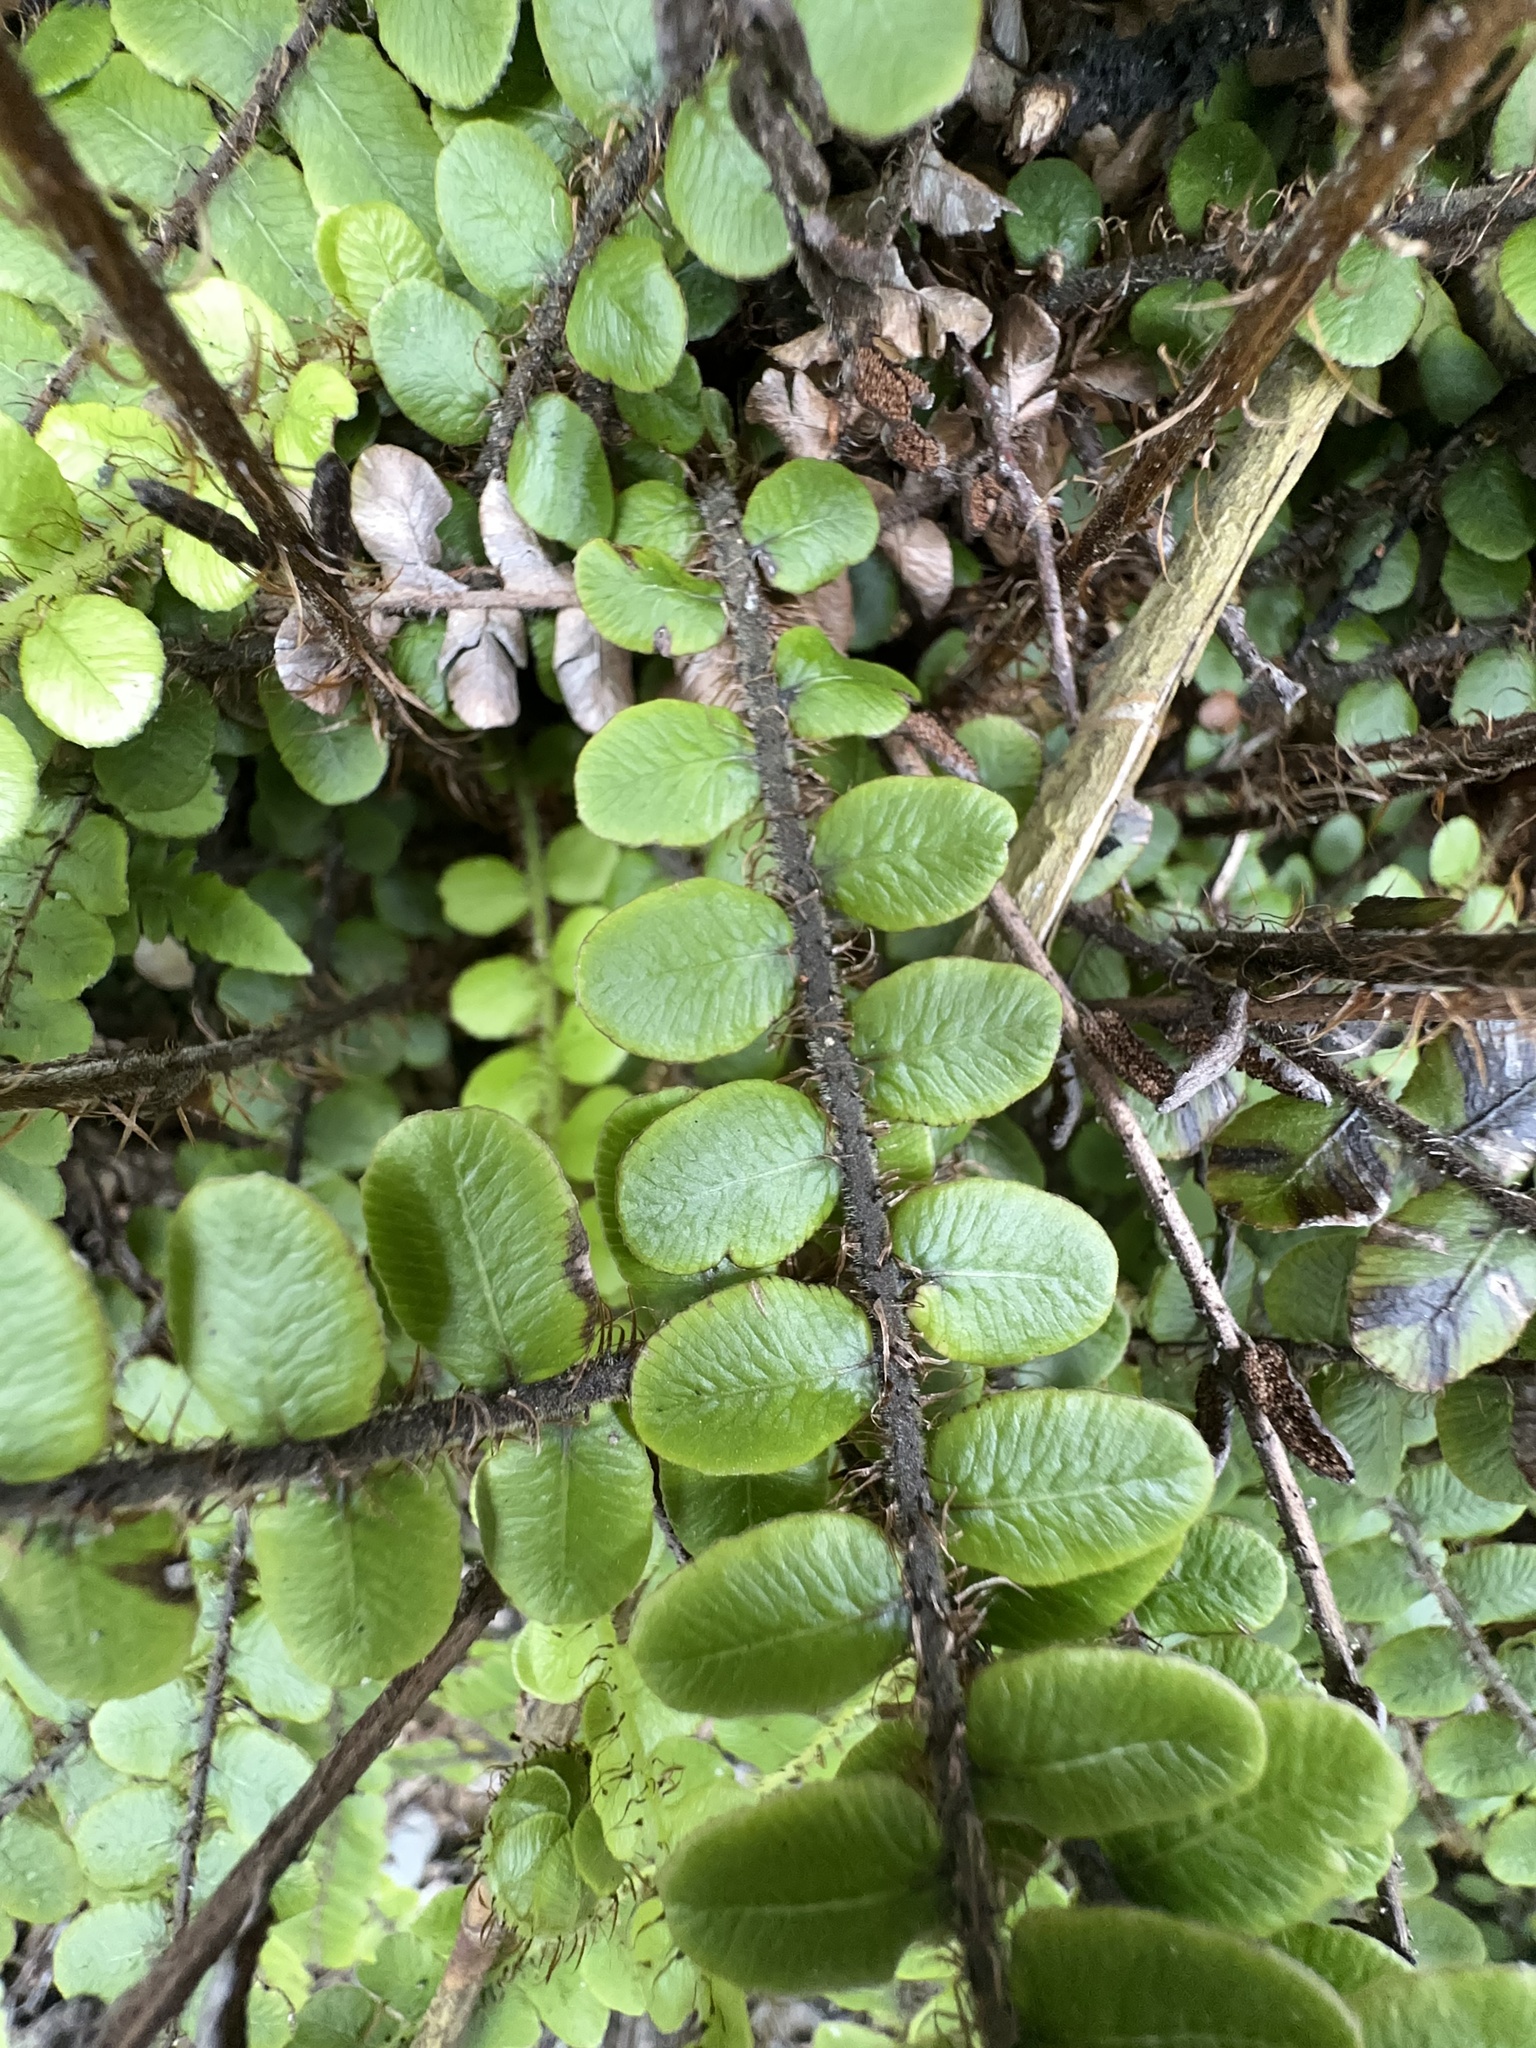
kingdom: Plantae
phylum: Tracheophyta
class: Polypodiopsida
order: Polypodiales
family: Blechnaceae
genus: Cranfillia
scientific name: Cranfillia fluviatilis
